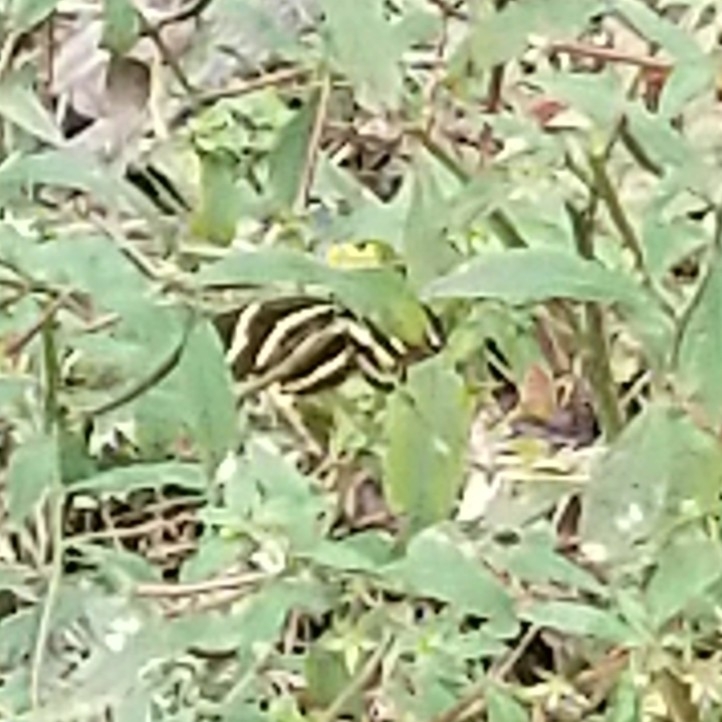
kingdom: Animalia
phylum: Arthropoda
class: Insecta
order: Lepidoptera
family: Nymphalidae
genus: Heliconius
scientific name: Heliconius charithonia
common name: Zebra long wing
